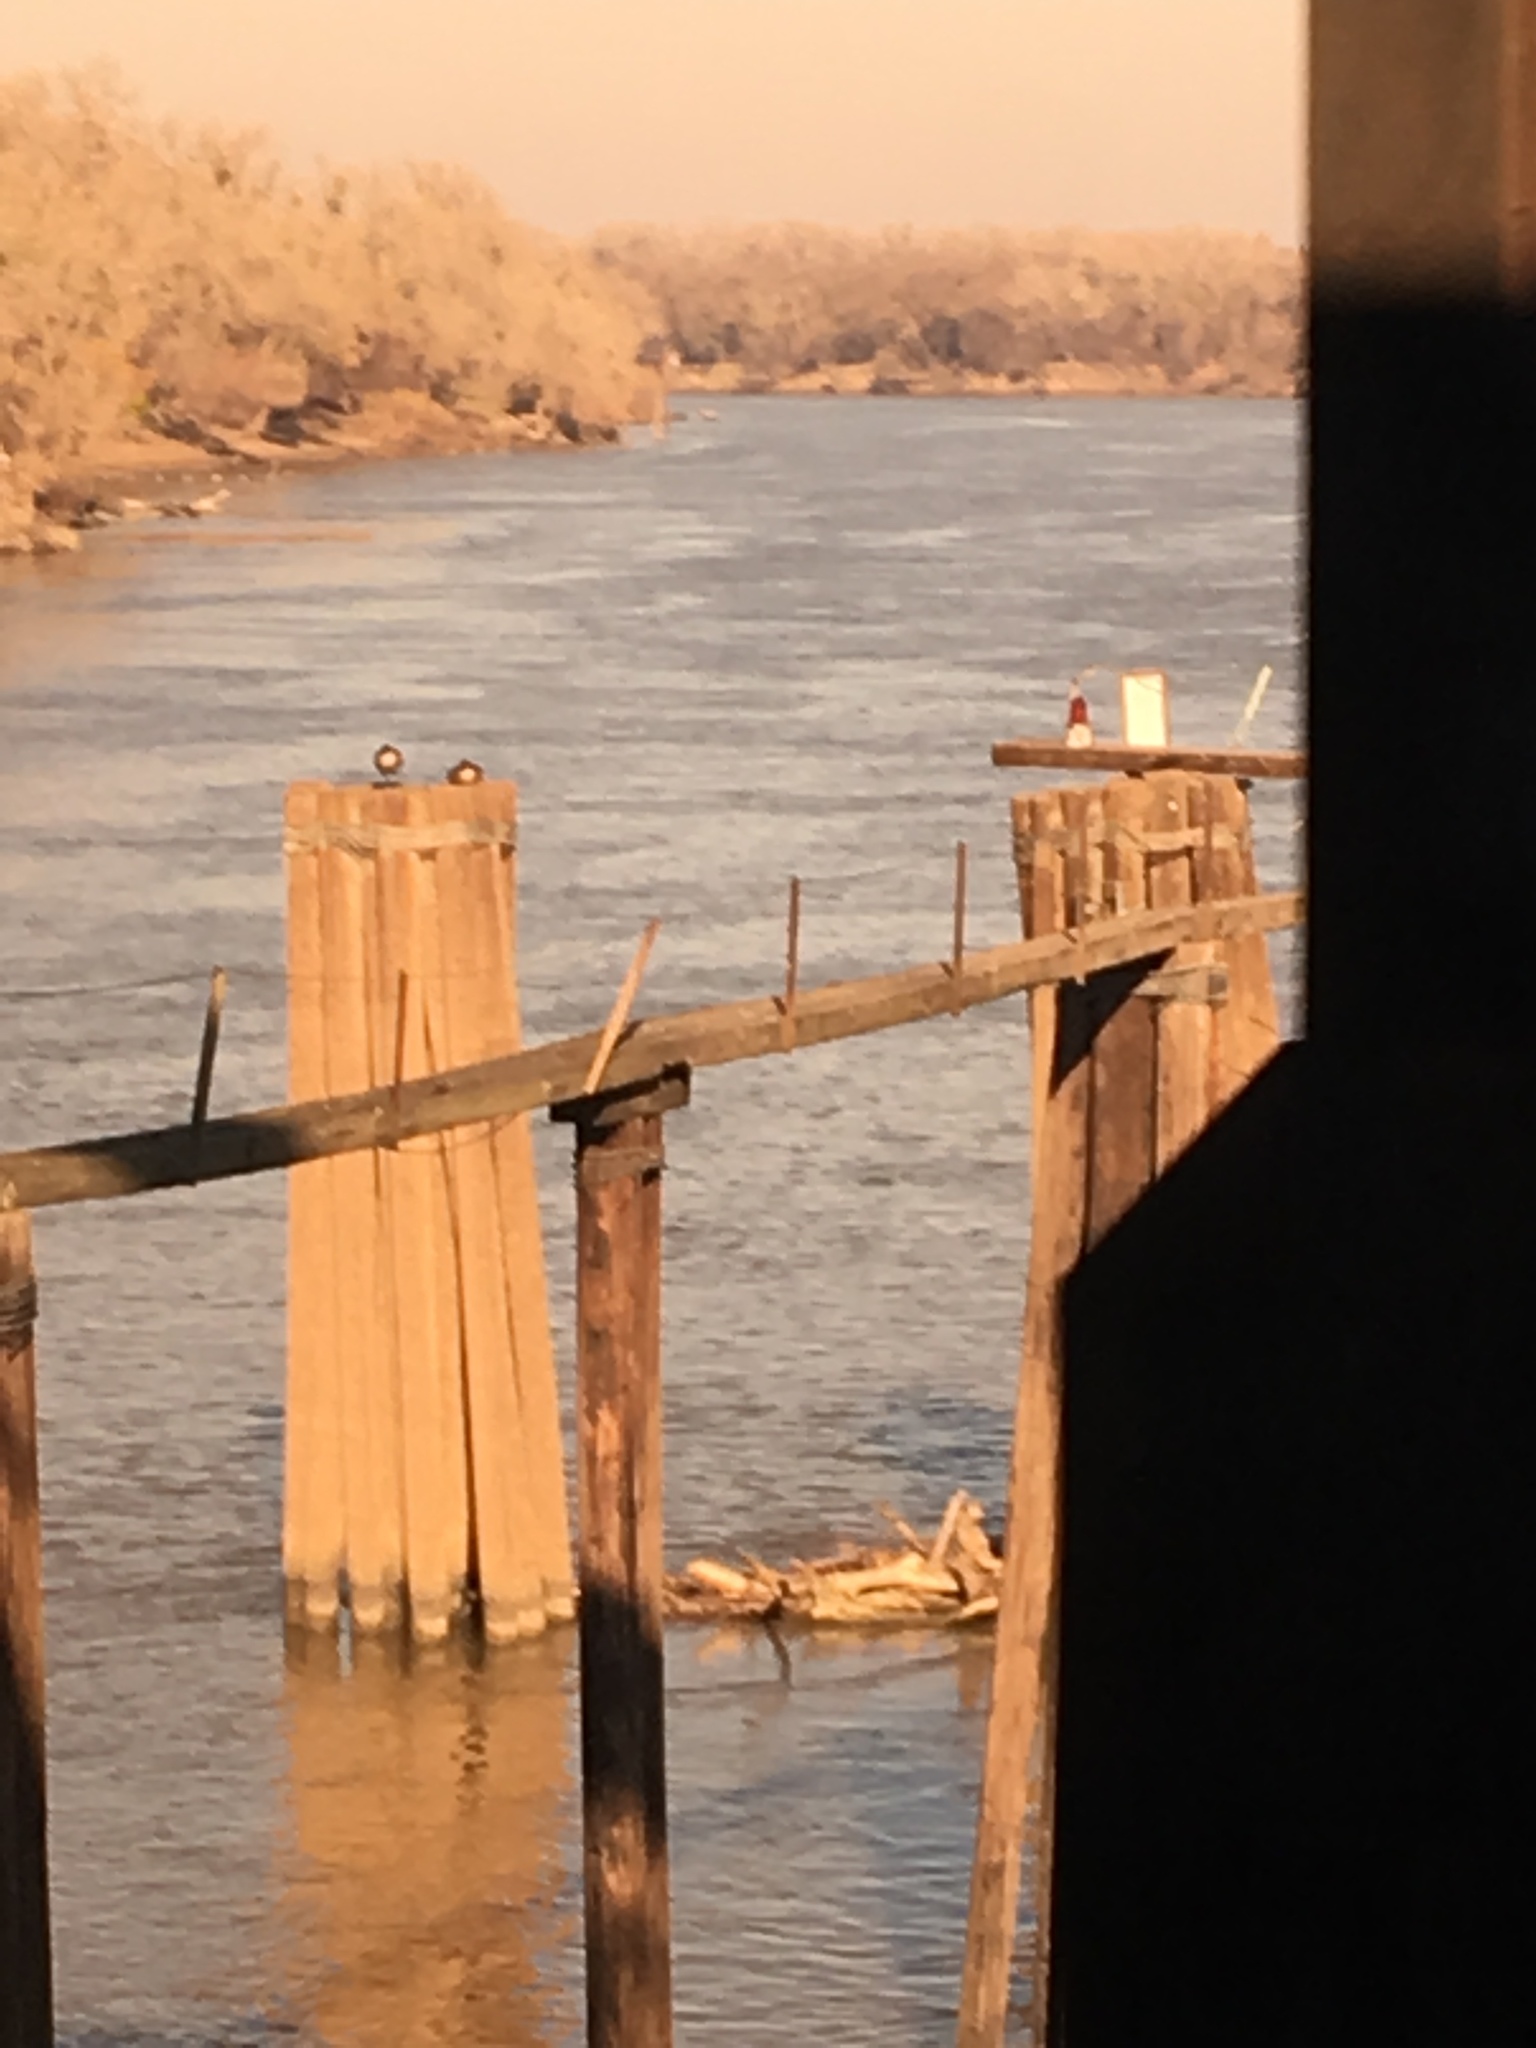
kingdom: Animalia
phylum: Chordata
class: Aves
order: Anseriformes
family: Anatidae
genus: Branta
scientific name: Branta canadensis
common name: Canada goose
